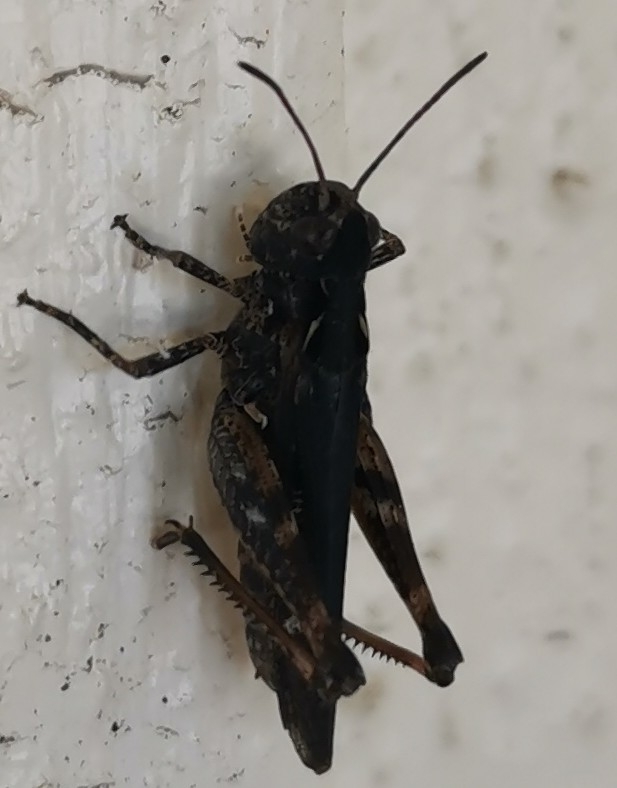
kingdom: Animalia
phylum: Arthropoda
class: Insecta
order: Orthoptera
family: Acrididae
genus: Myrmeleotettix
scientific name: Myrmeleotettix maculatus
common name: Mottled grasshopper
